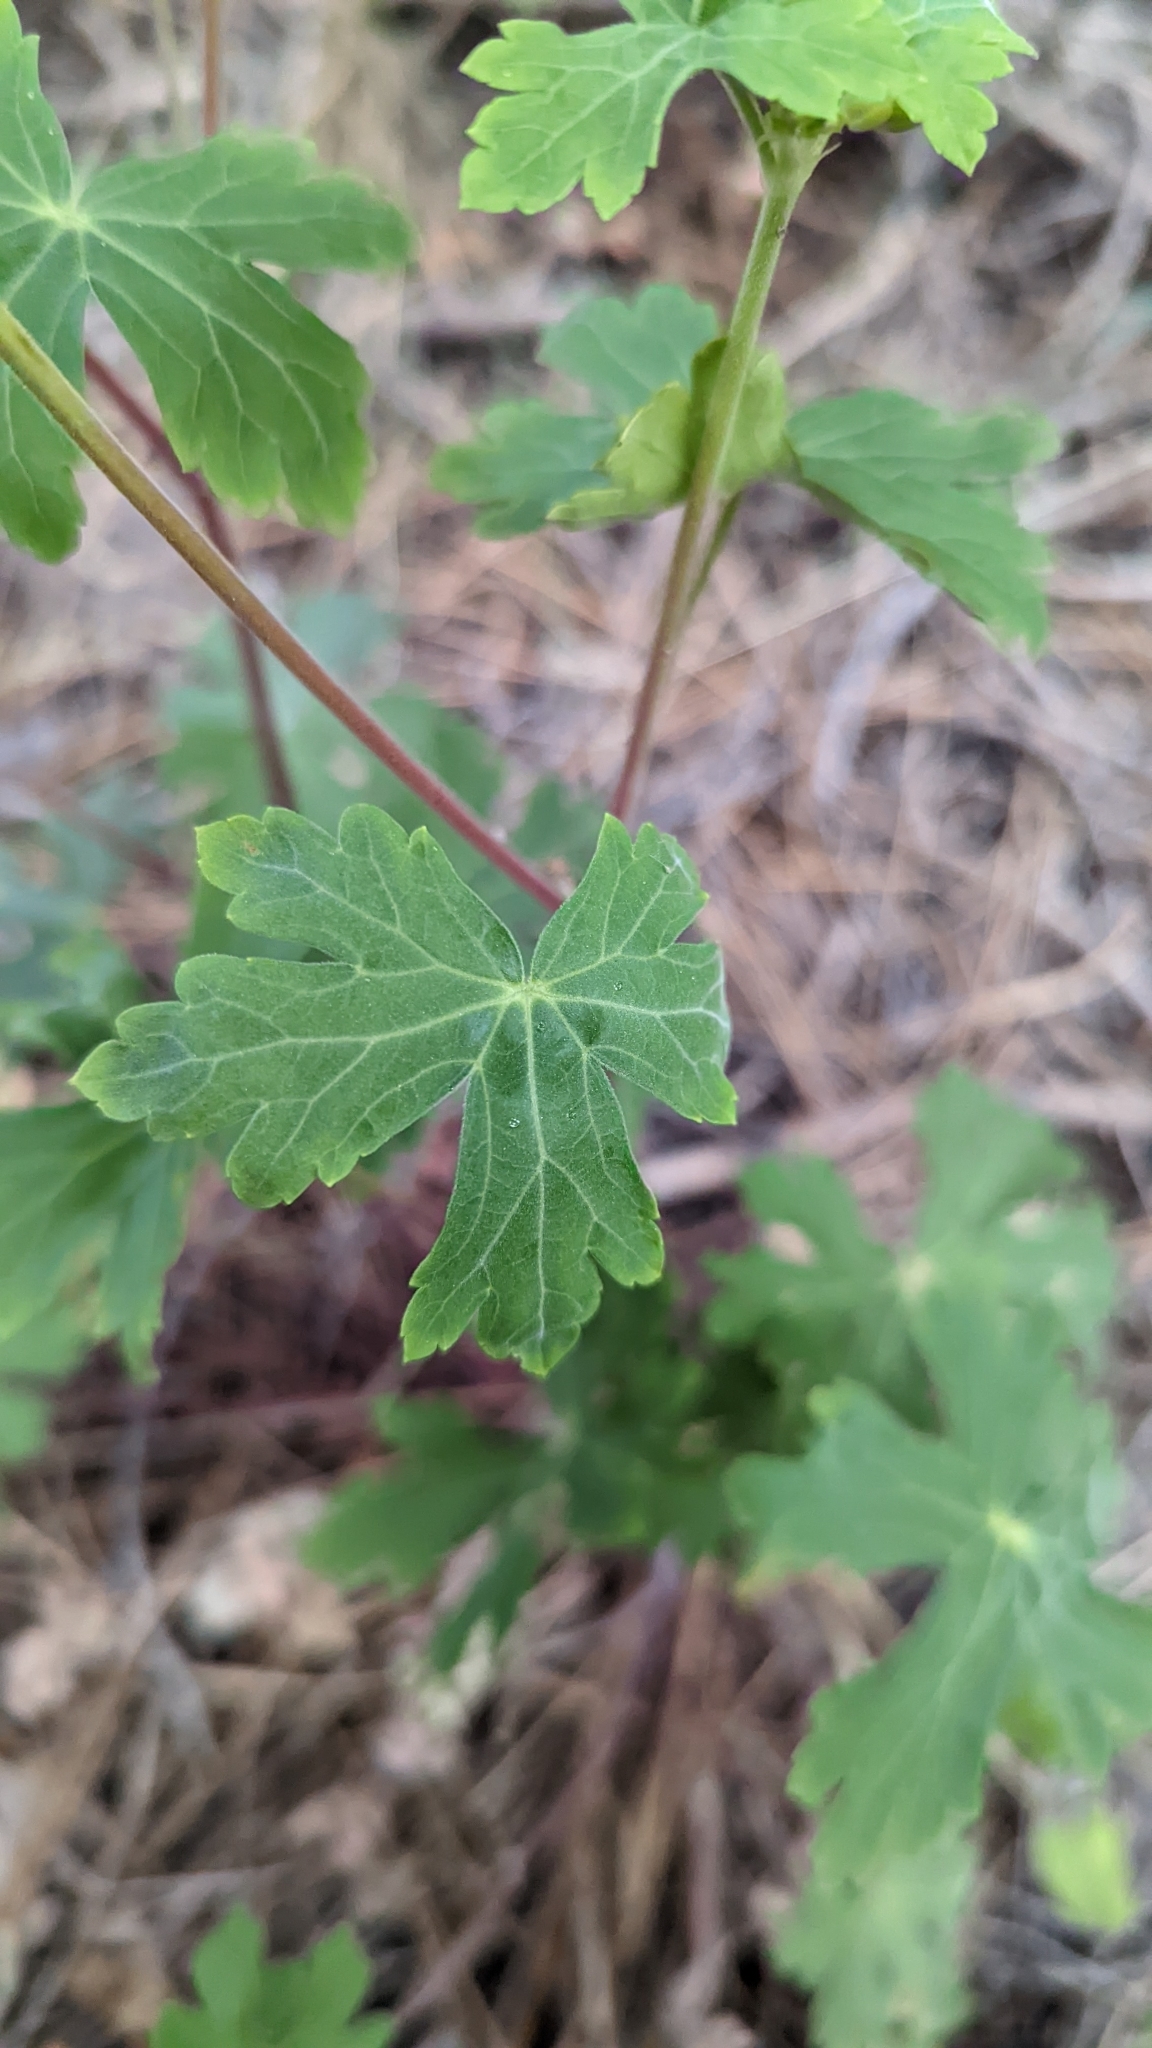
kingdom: Plantae
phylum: Tracheophyta
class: Magnoliopsida
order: Geraniales
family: Geraniaceae
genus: Geranium
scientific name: Geranium caespitosum
